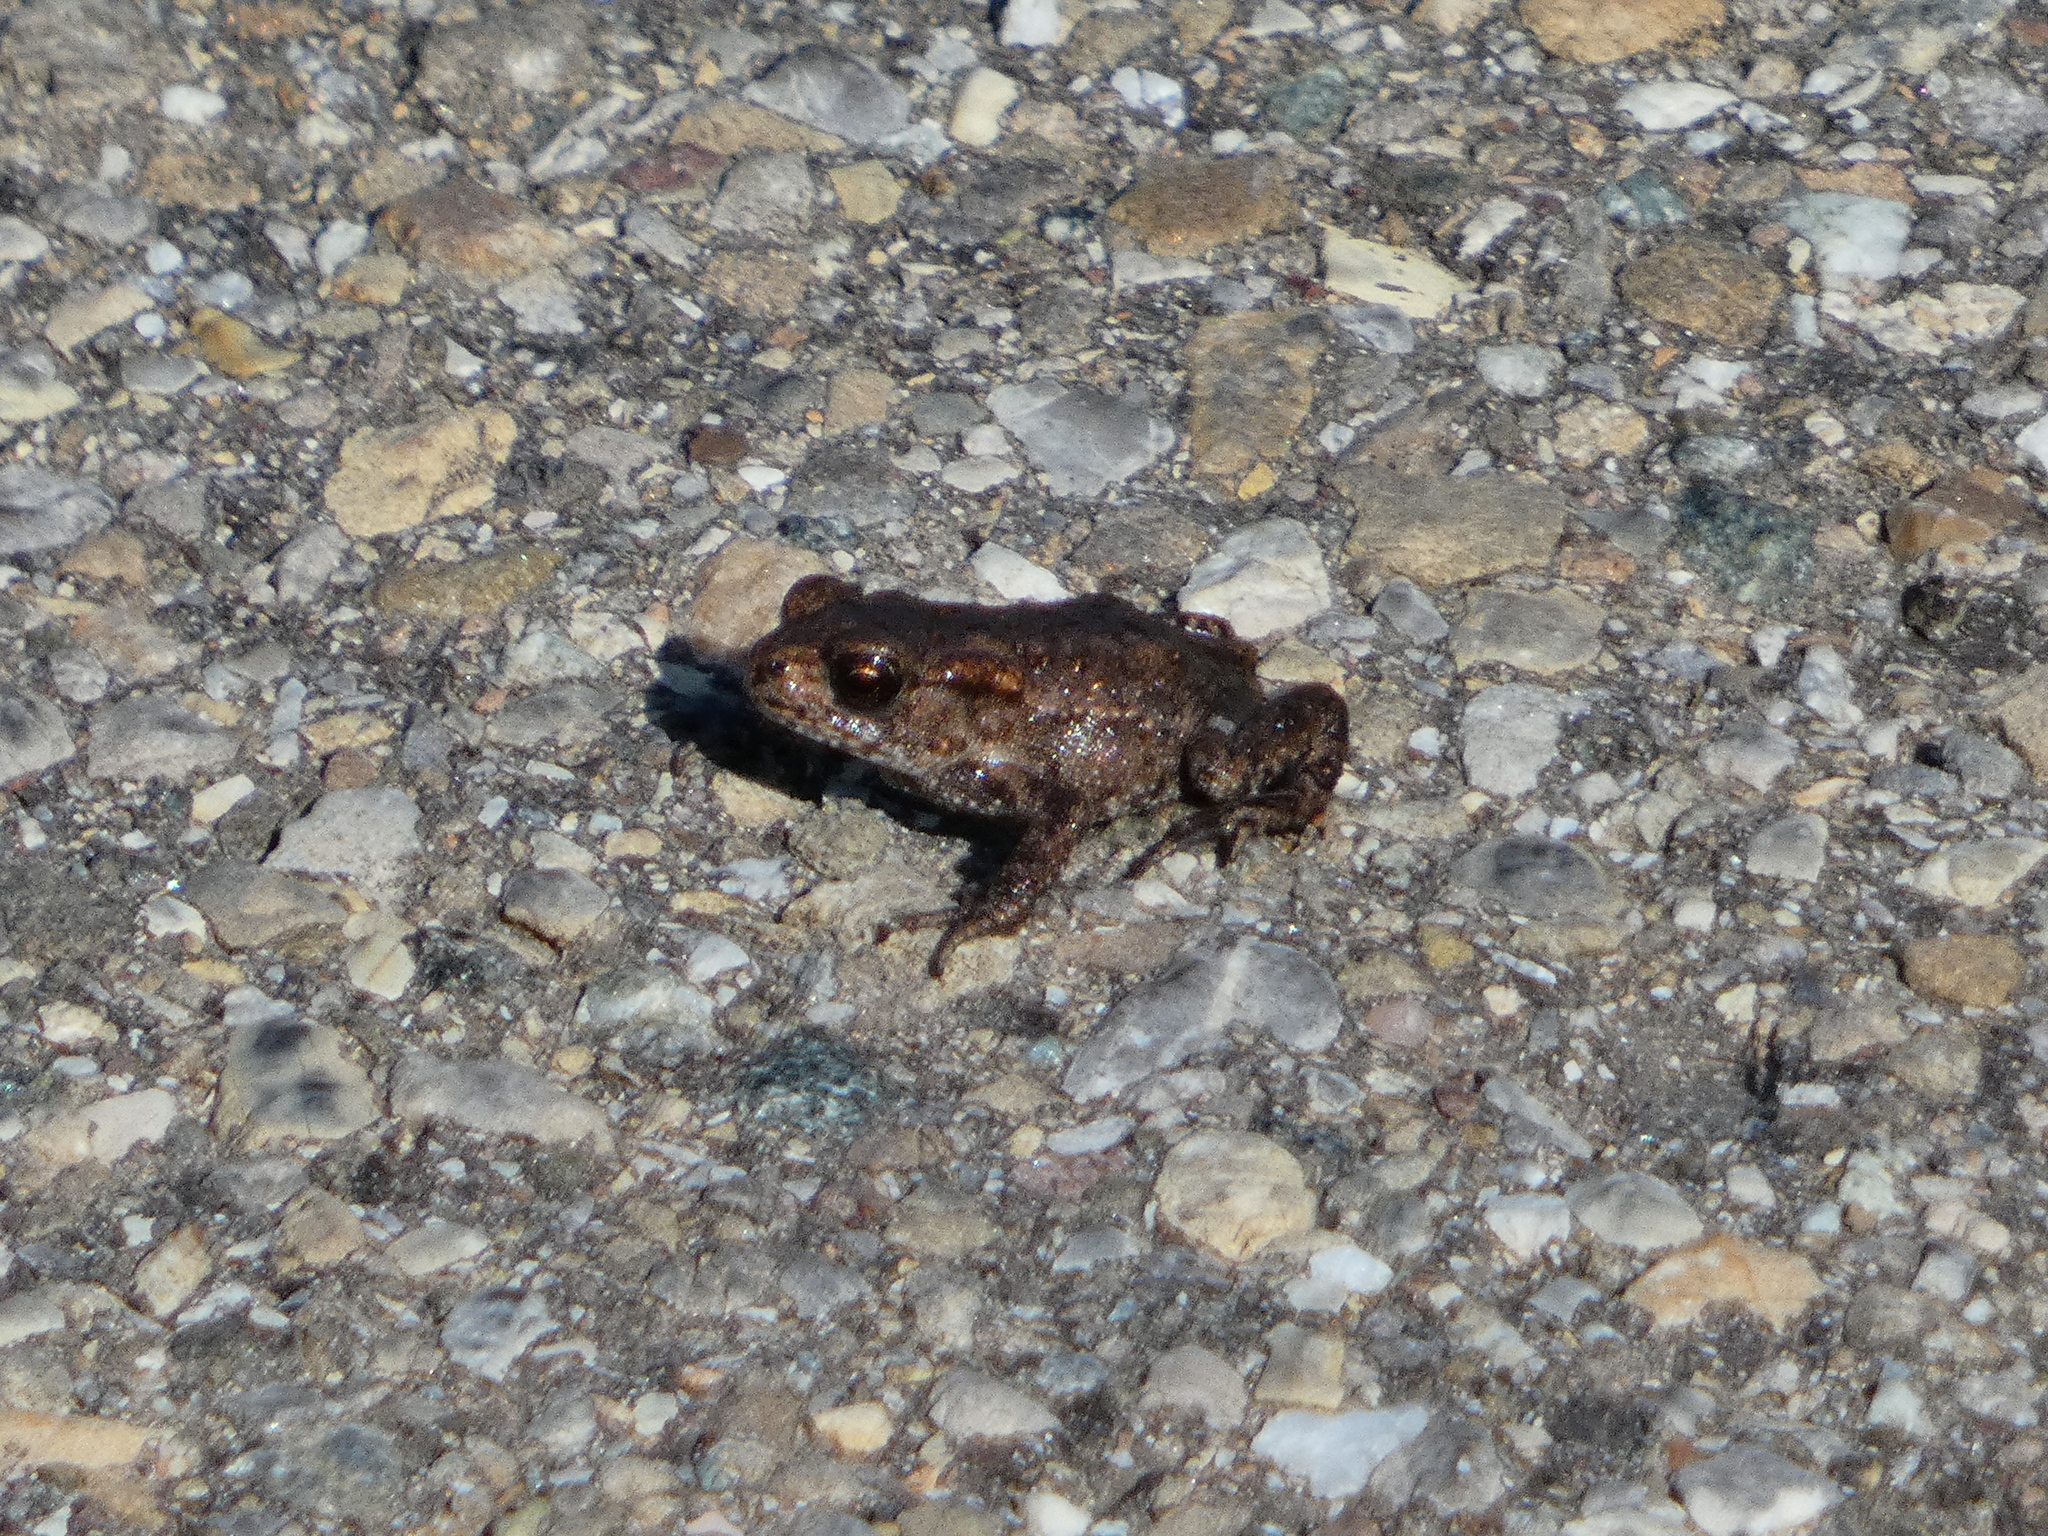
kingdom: Animalia
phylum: Chordata
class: Amphibia
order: Anura
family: Bufonidae
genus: Bufo
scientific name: Bufo bufo
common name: Common toad
